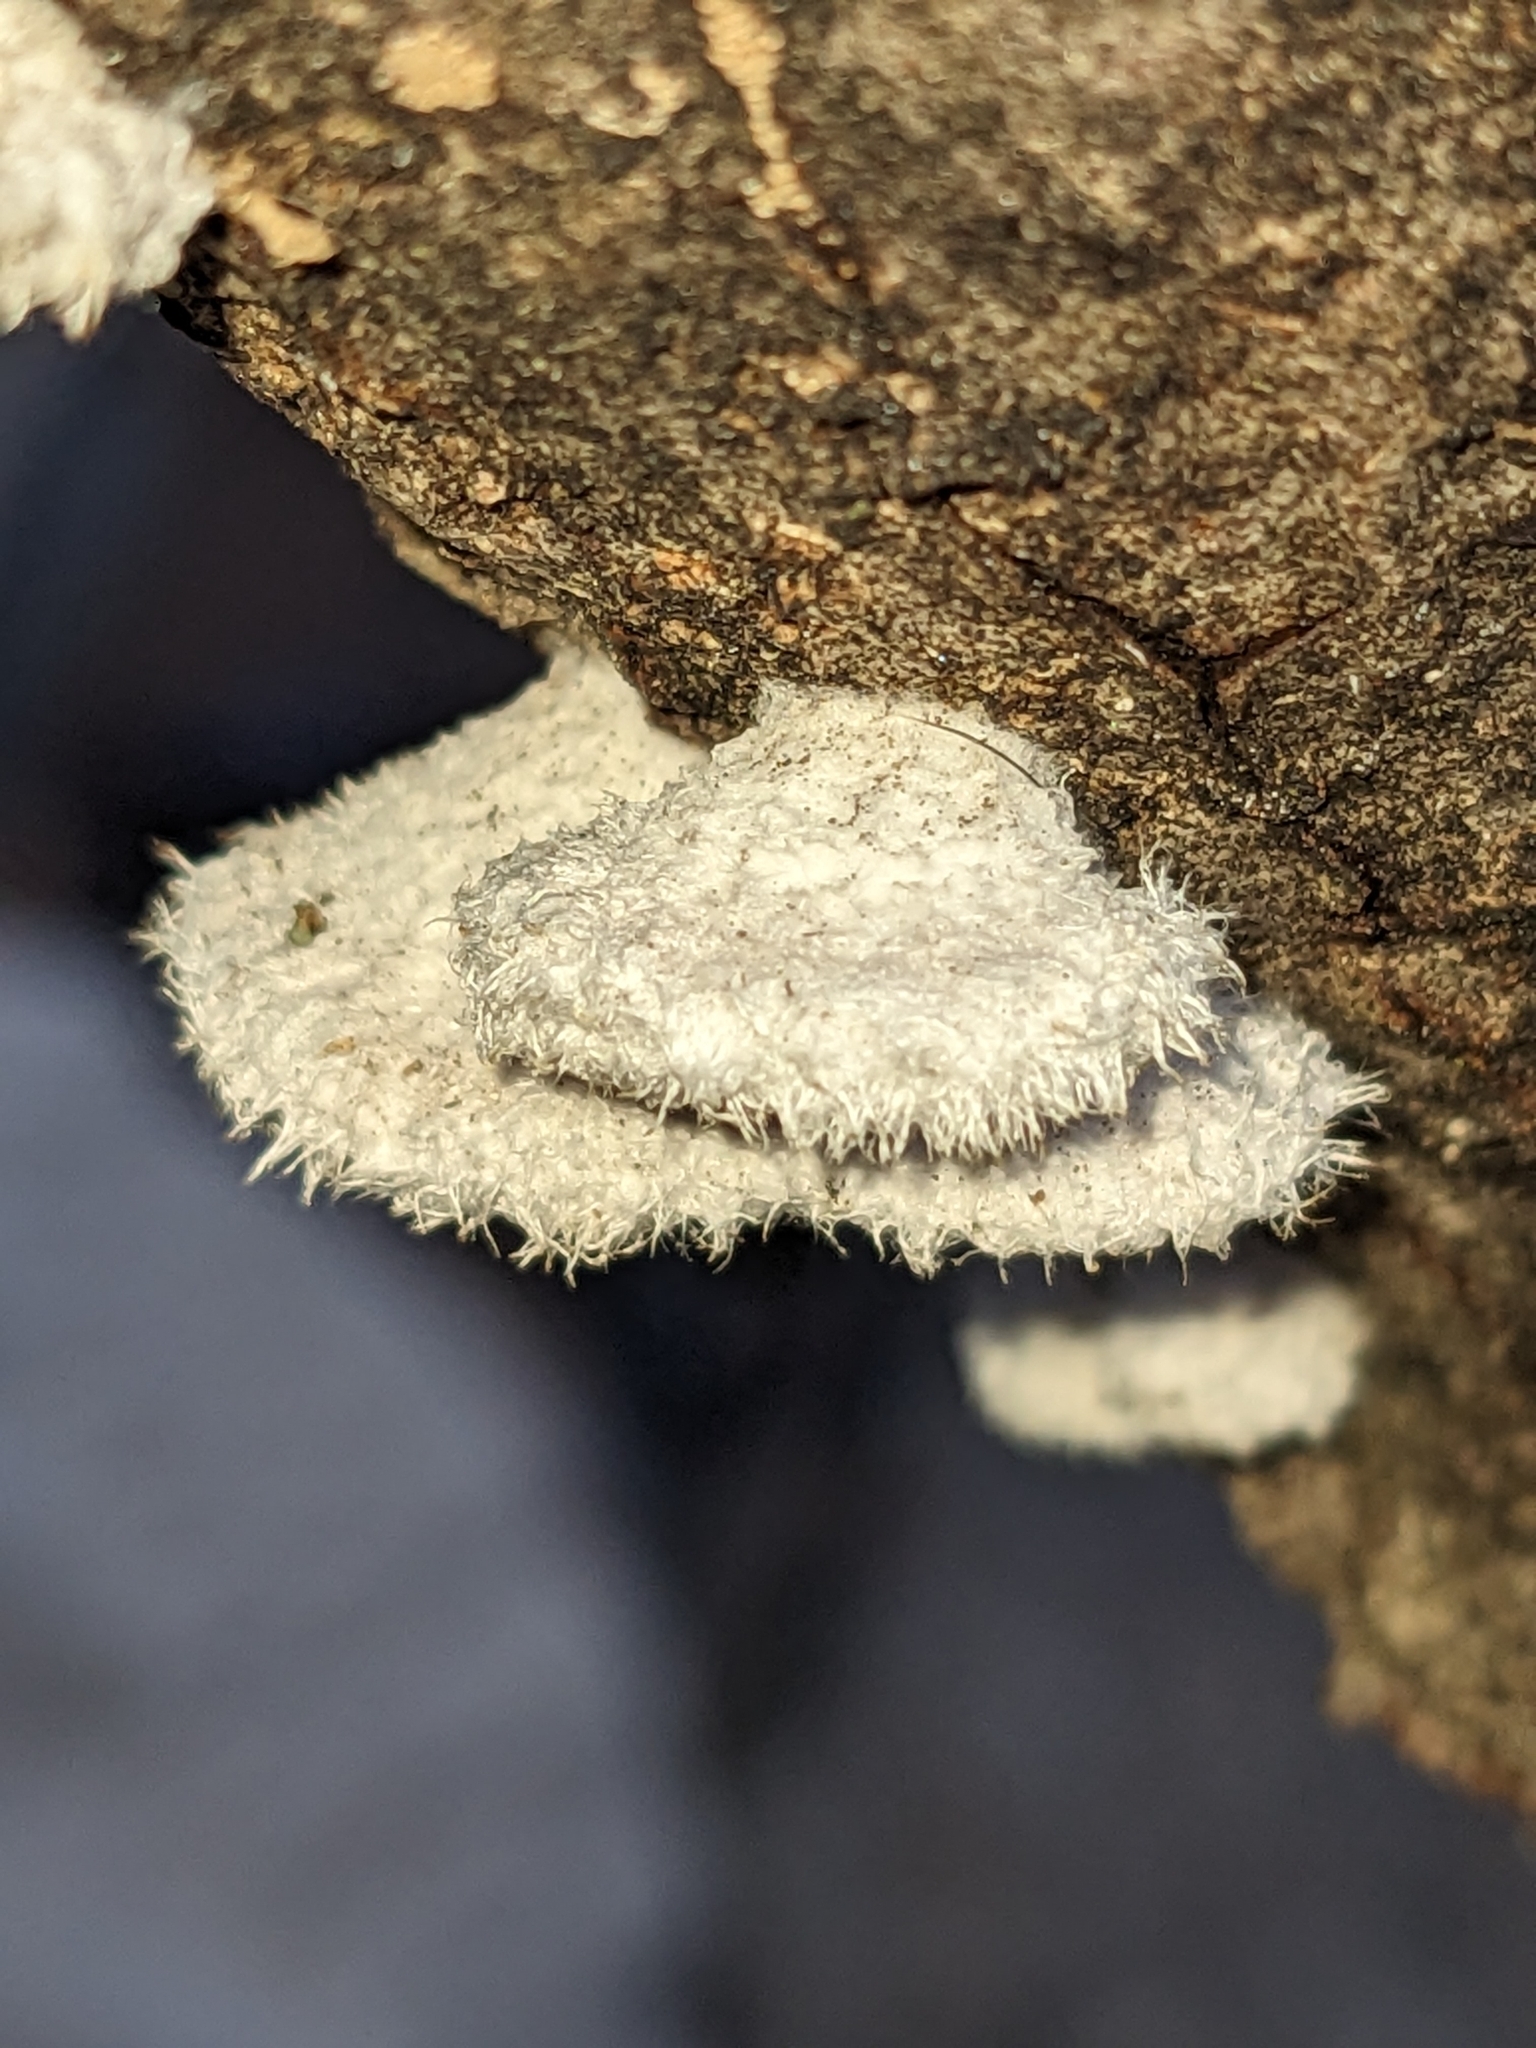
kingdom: Fungi
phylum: Basidiomycota
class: Agaricomycetes
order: Agaricales
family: Schizophyllaceae
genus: Schizophyllum
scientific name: Schizophyllum commune
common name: Common porecrust
